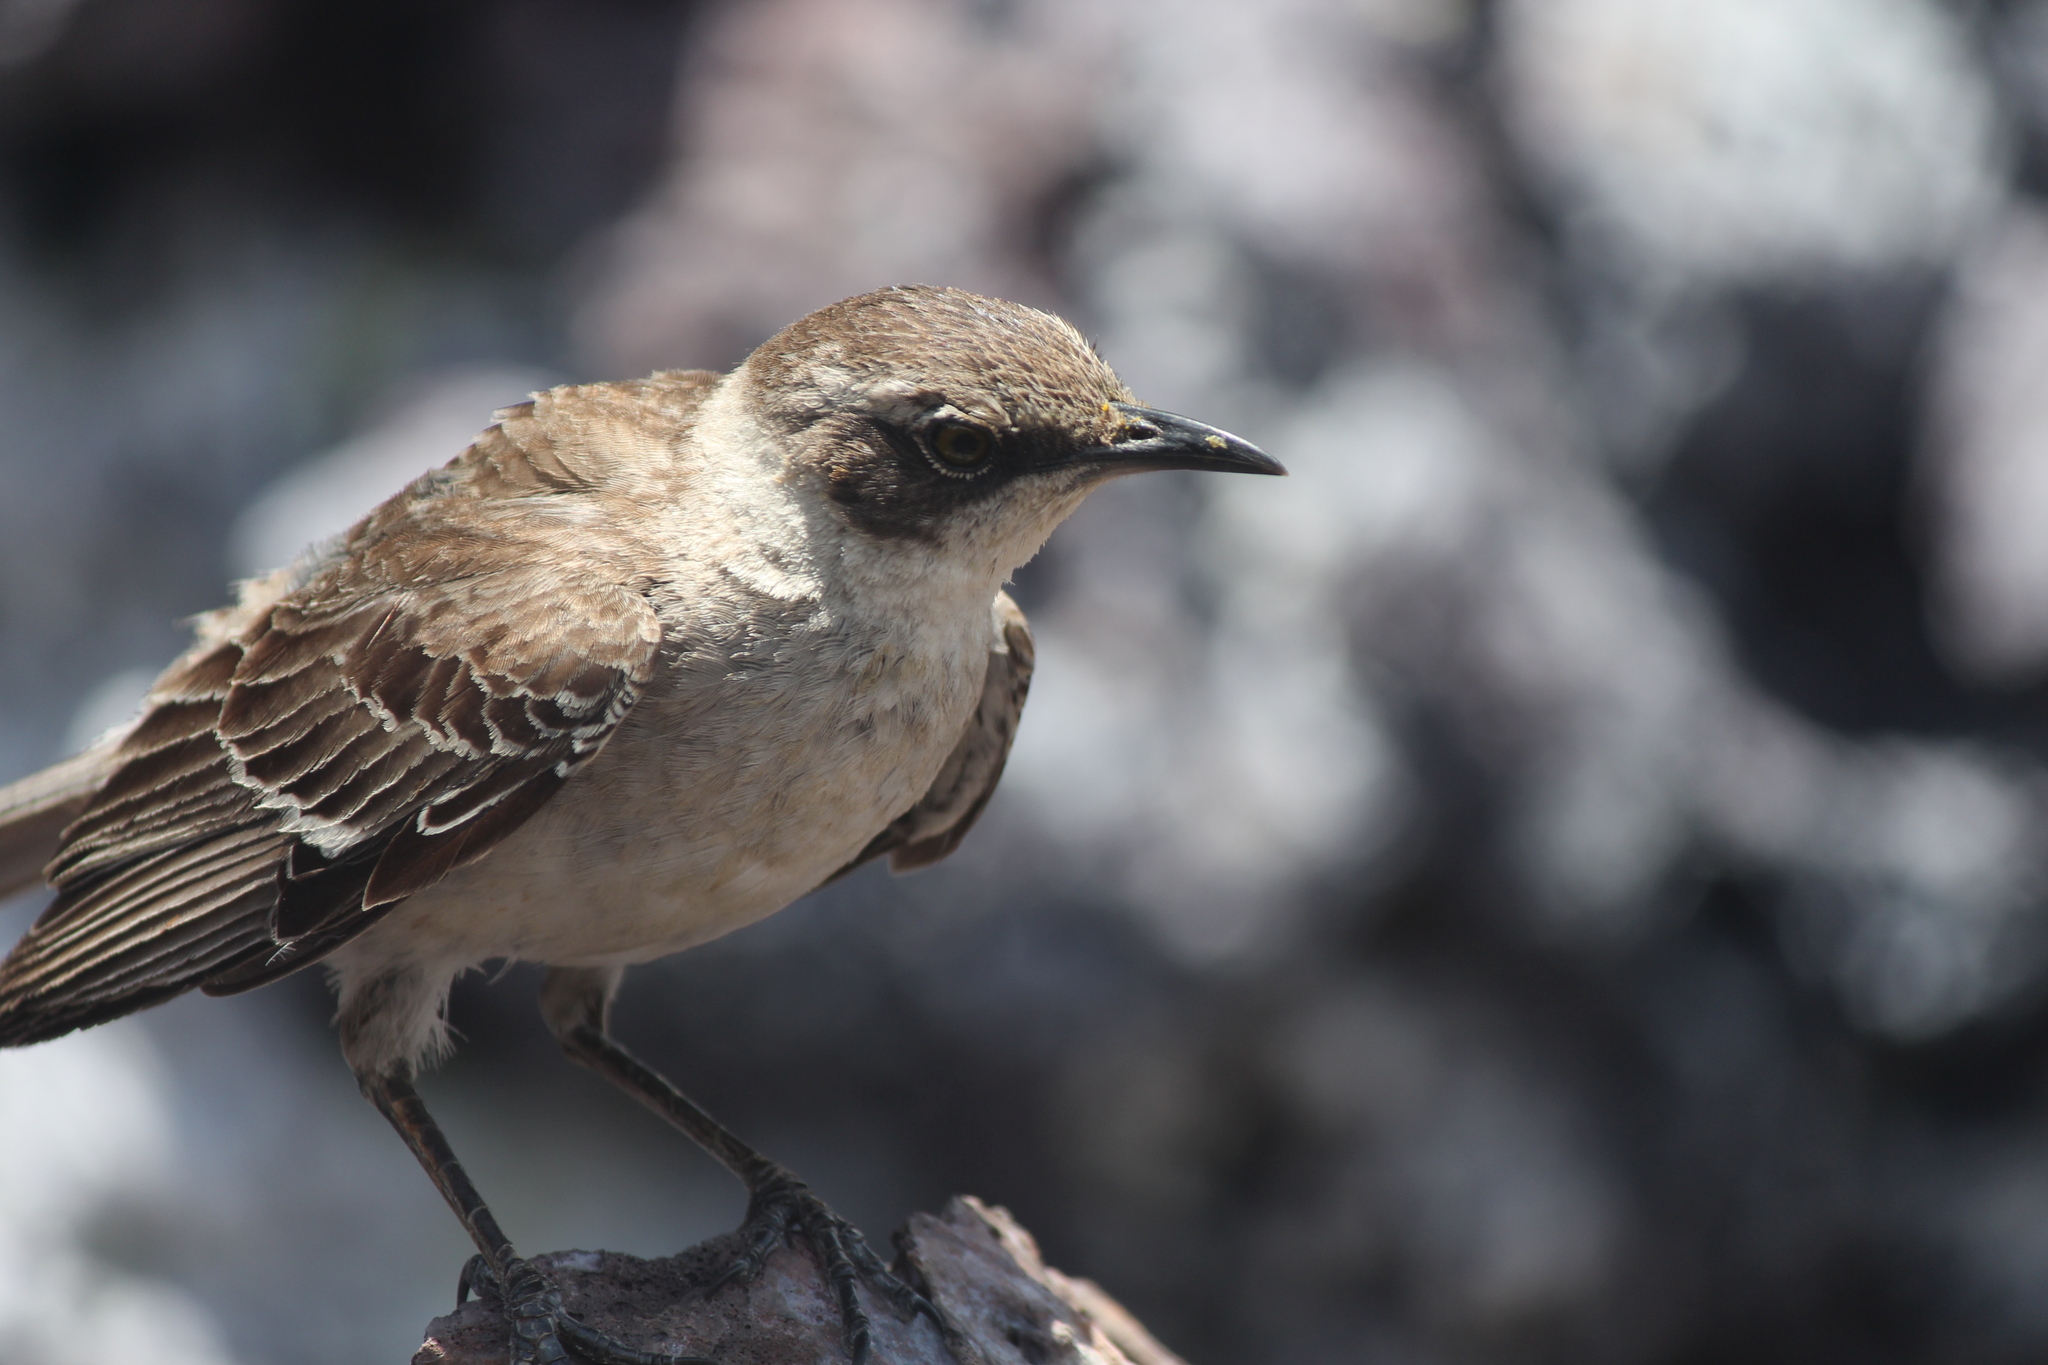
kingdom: Animalia
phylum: Chordata
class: Aves
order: Passeriformes
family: Mimidae
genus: Mimus
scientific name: Mimus parvulus
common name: Galapagos mockingbird
